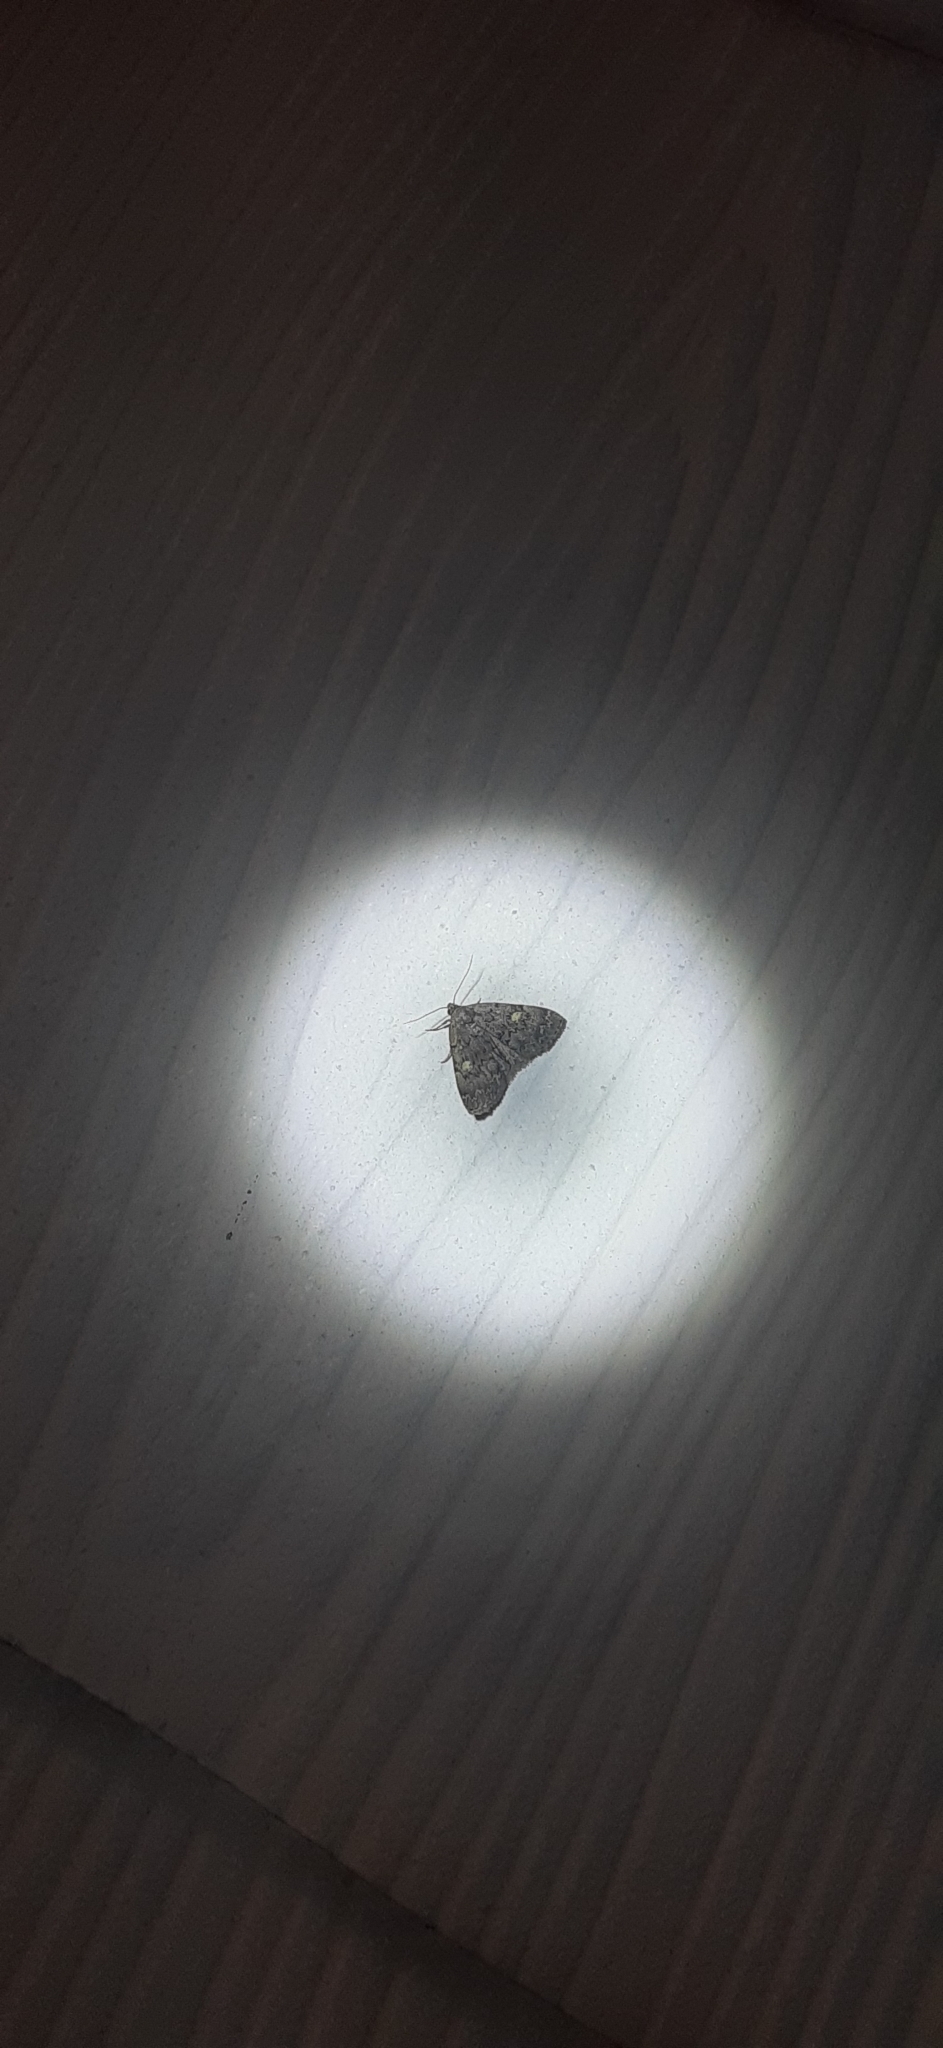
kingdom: Animalia
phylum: Arthropoda
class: Insecta
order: Lepidoptera
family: Erebidae
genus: Idia
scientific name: Idia aemula
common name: Common idia moth
